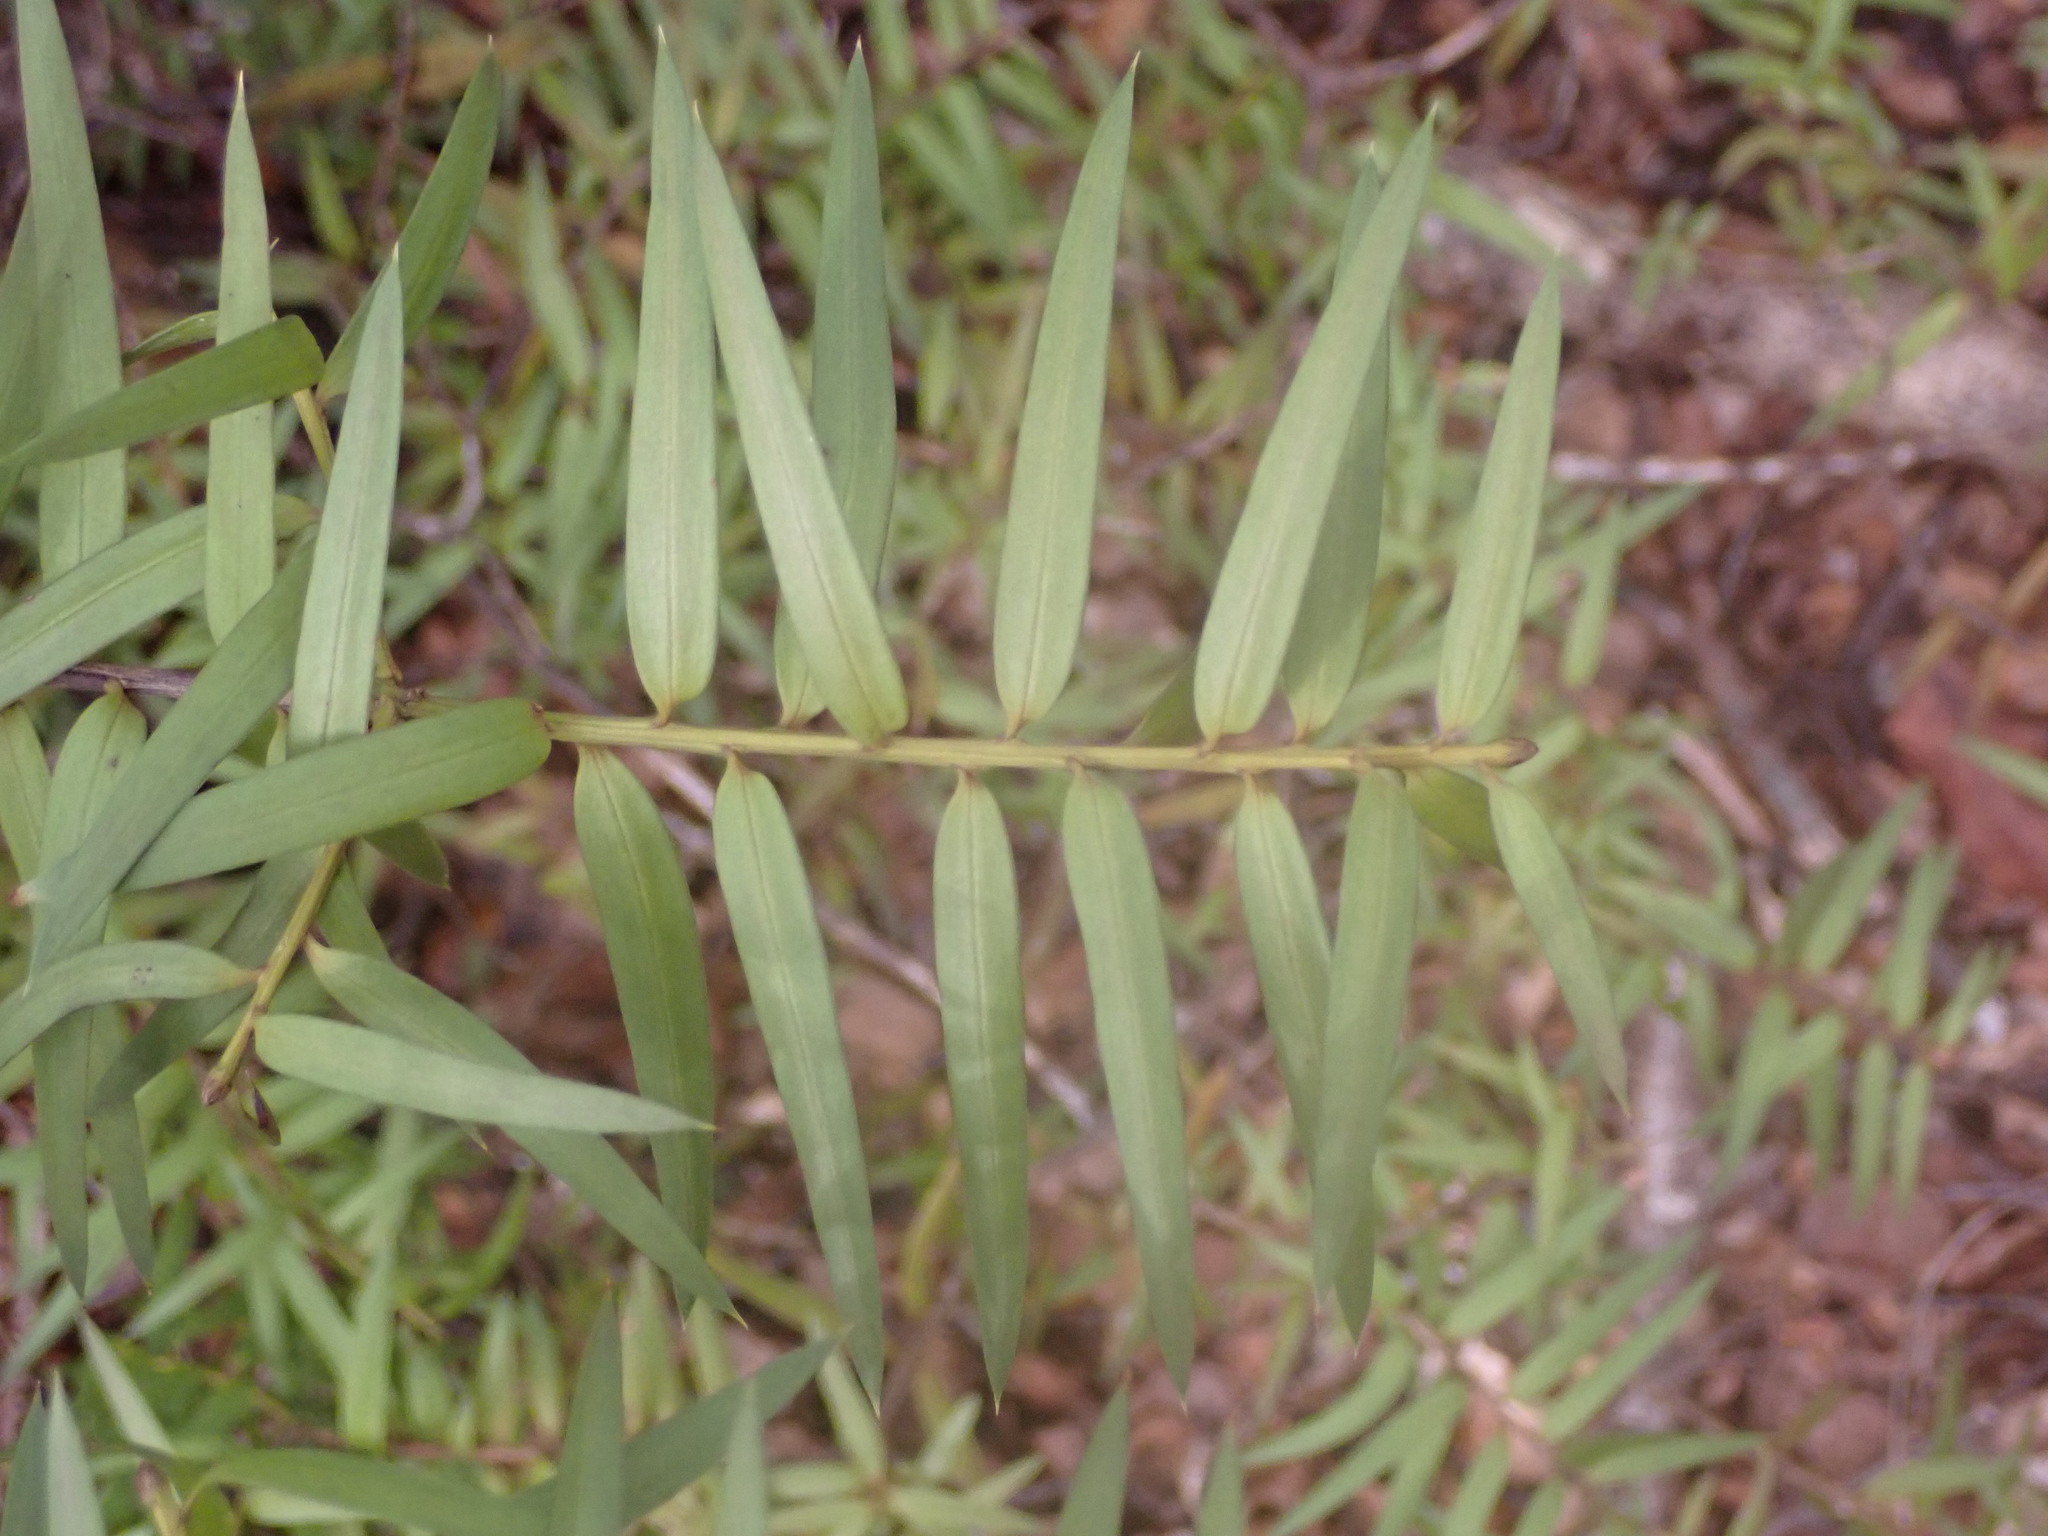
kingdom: Plantae
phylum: Tracheophyta
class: Pinopsida
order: Pinales
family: Podocarpaceae
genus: Podocarpus
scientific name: Podocarpus laetus
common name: Hall's totara
